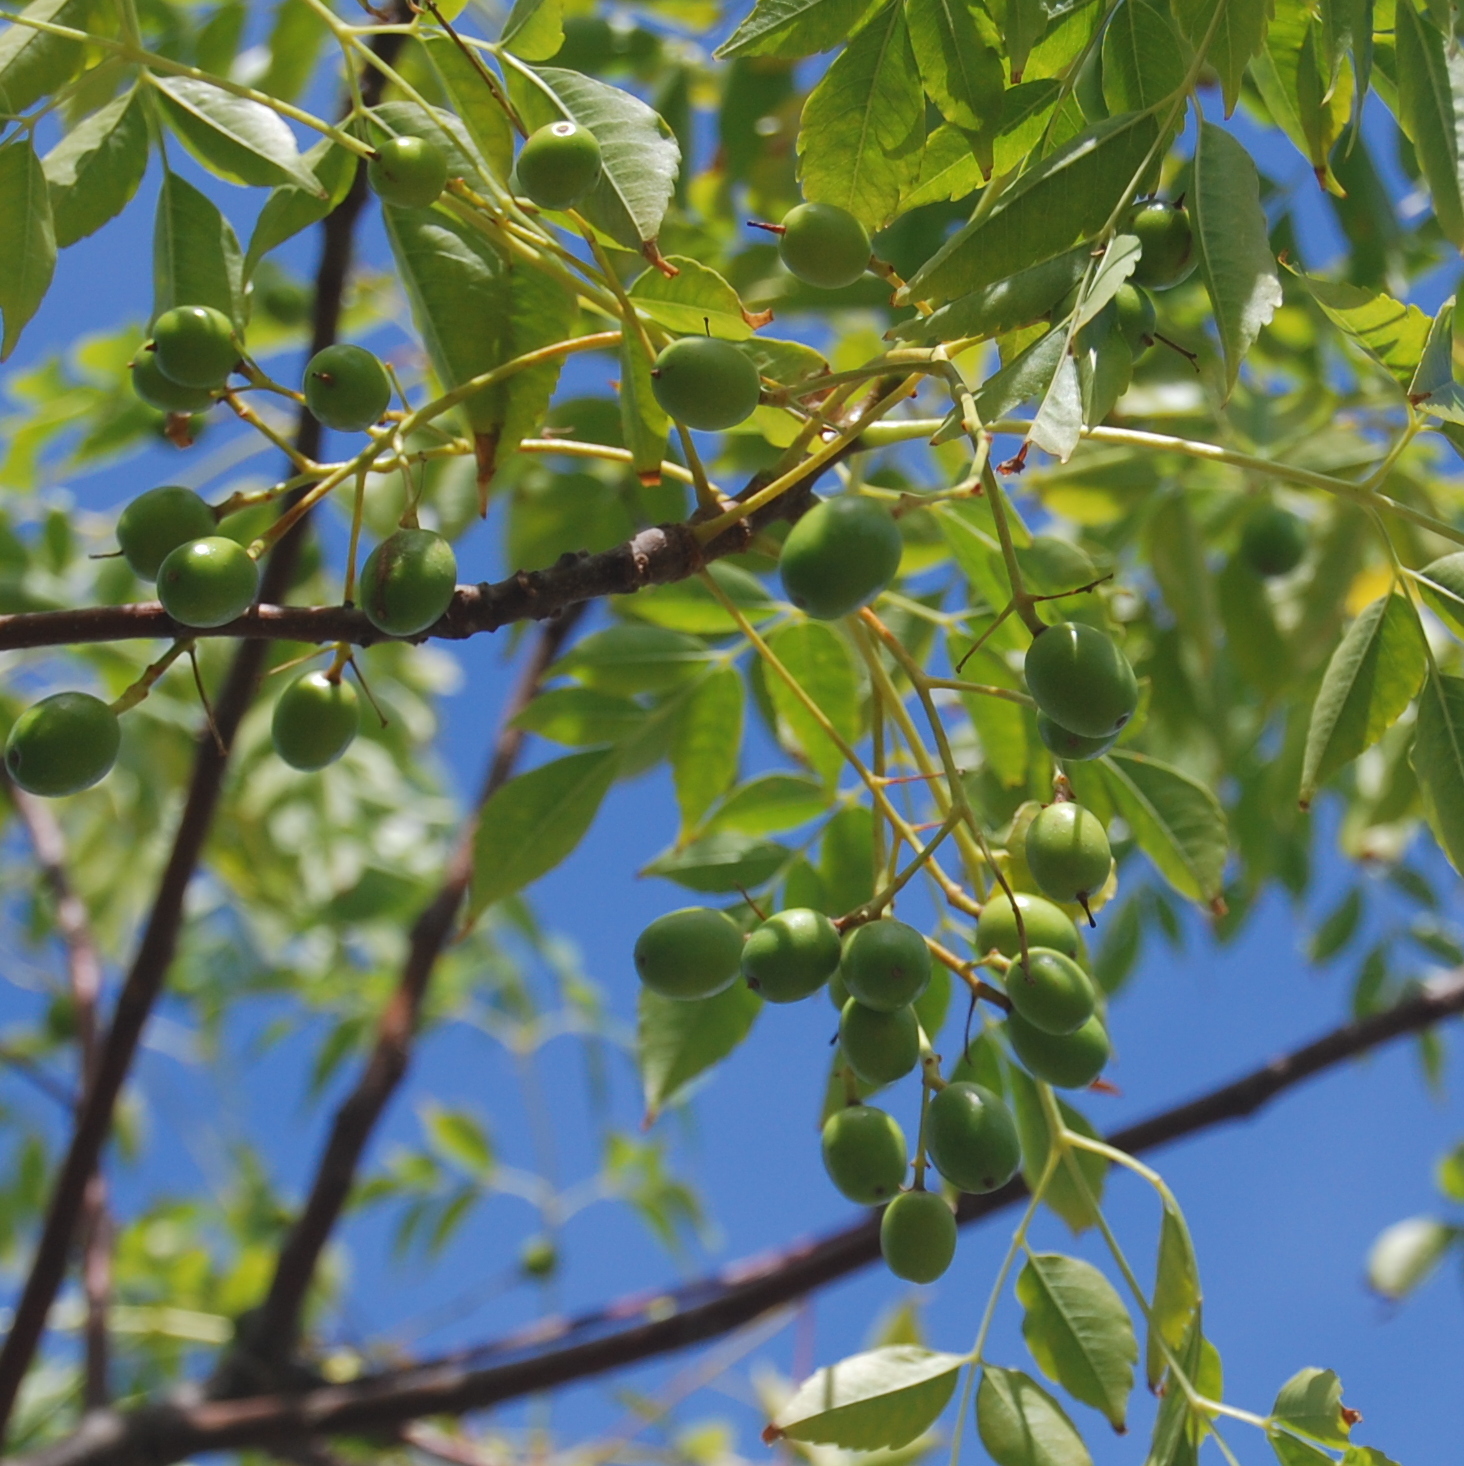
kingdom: Plantae
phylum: Tracheophyta
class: Magnoliopsida
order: Sapindales
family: Meliaceae
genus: Melia
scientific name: Melia azedarach
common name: Chinaberrytree
